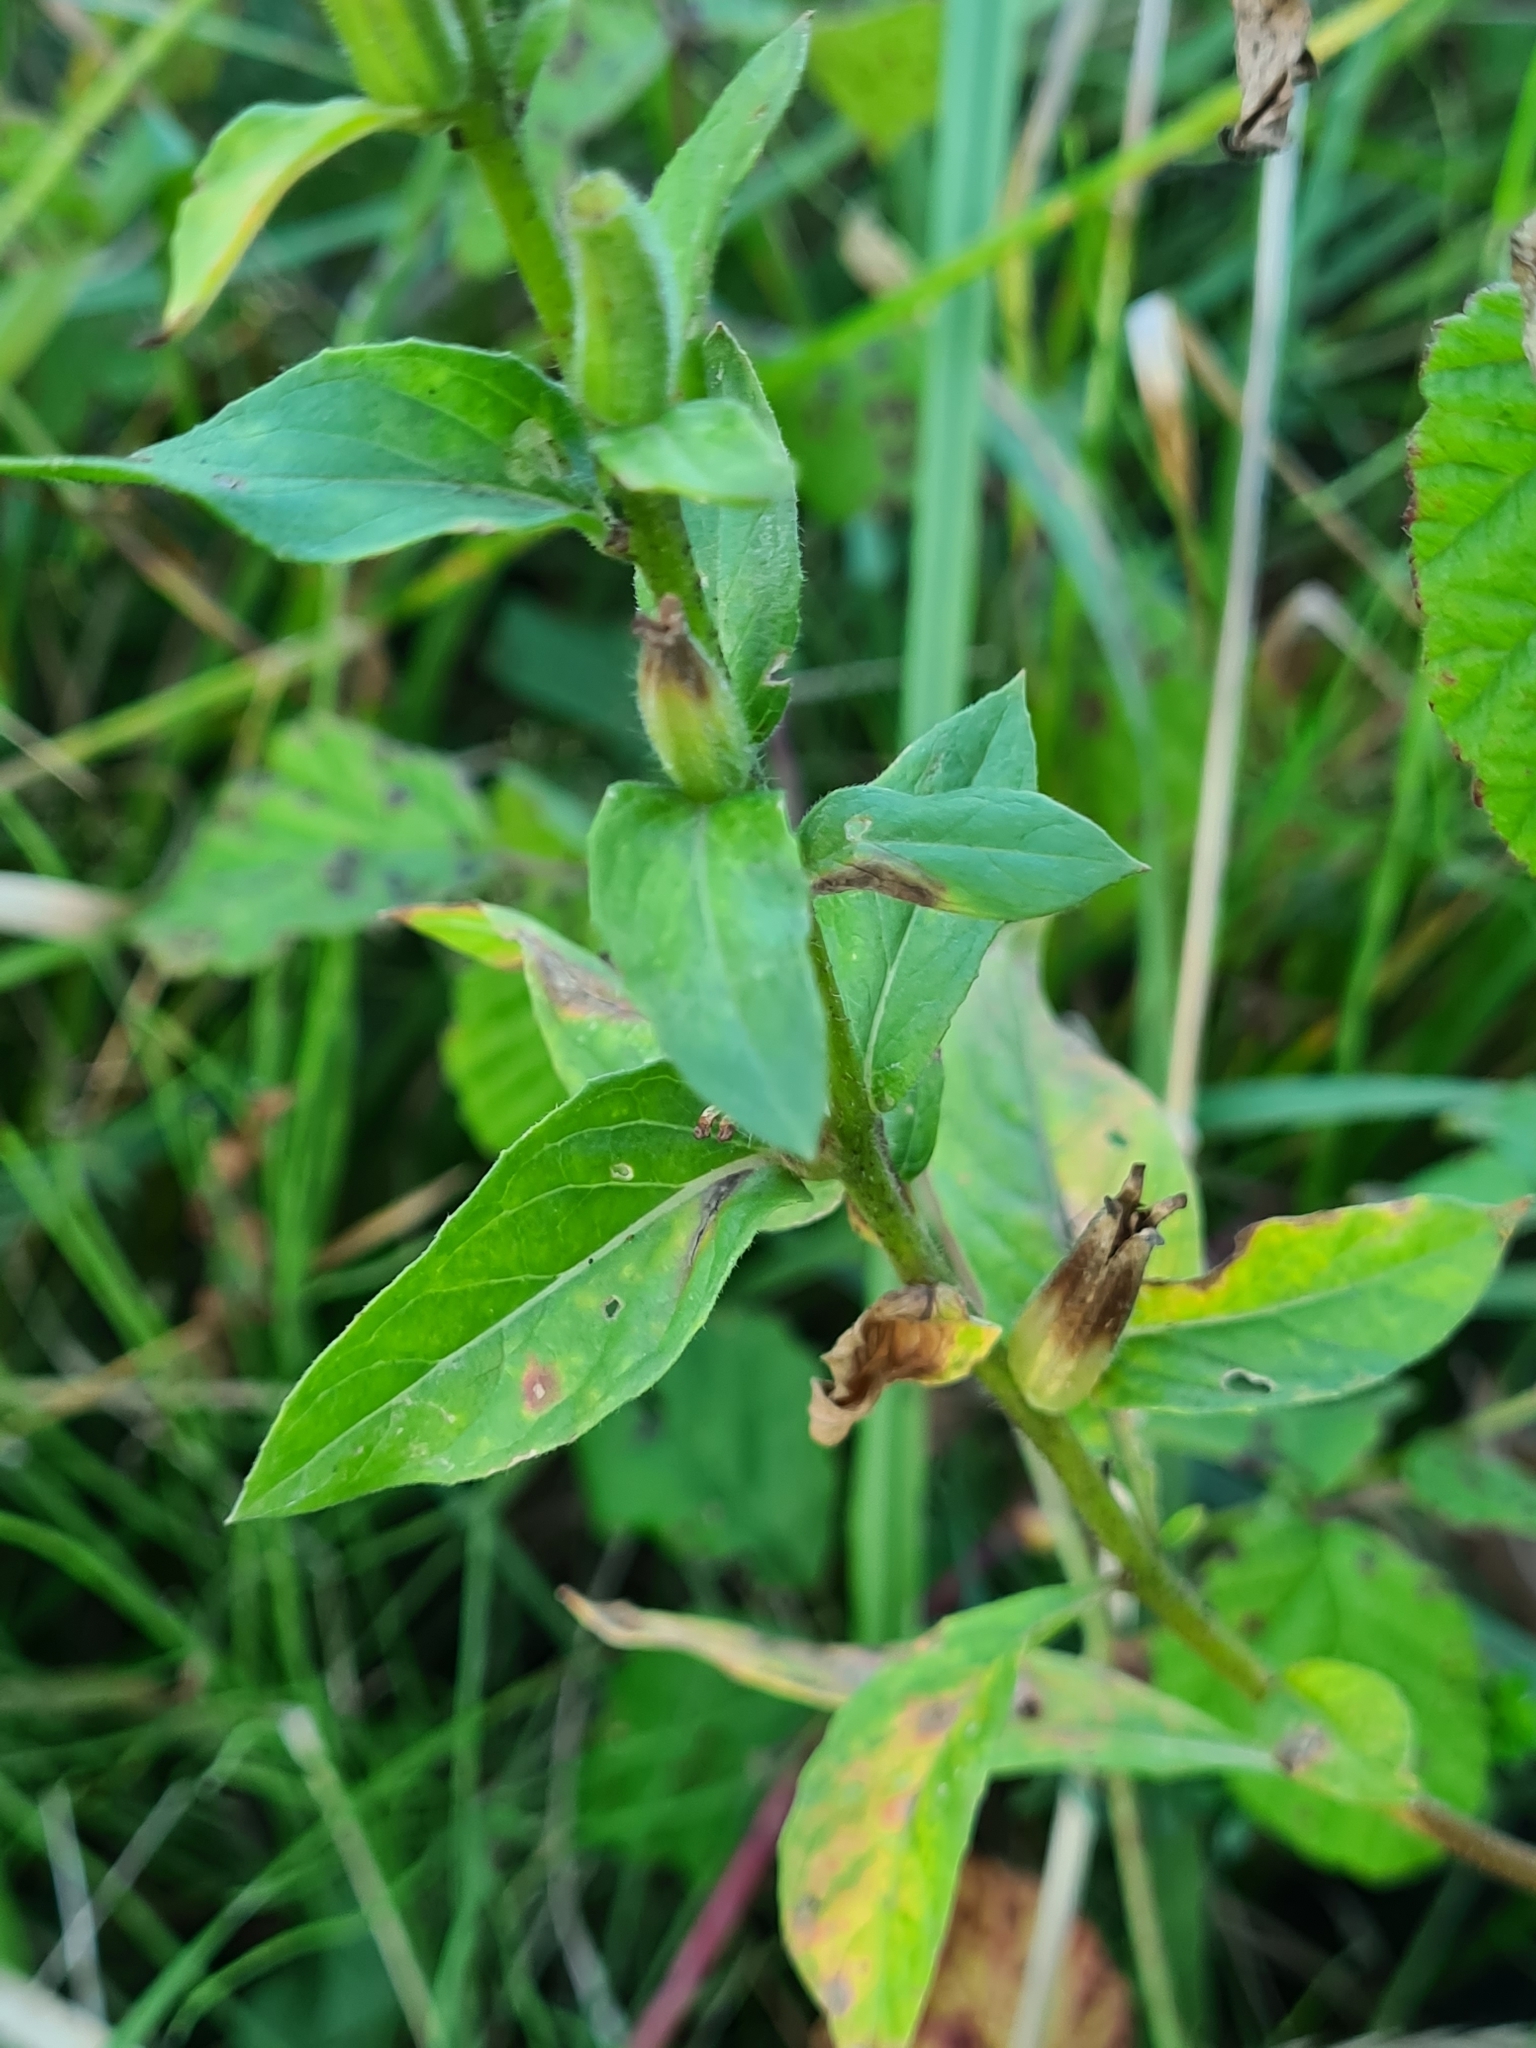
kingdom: Plantae
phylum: Tracheophyta
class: Magnoliopsida
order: Myrtales
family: Onagraceae
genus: Oenothera
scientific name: Oenothera biennis
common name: Common evening-primrose
